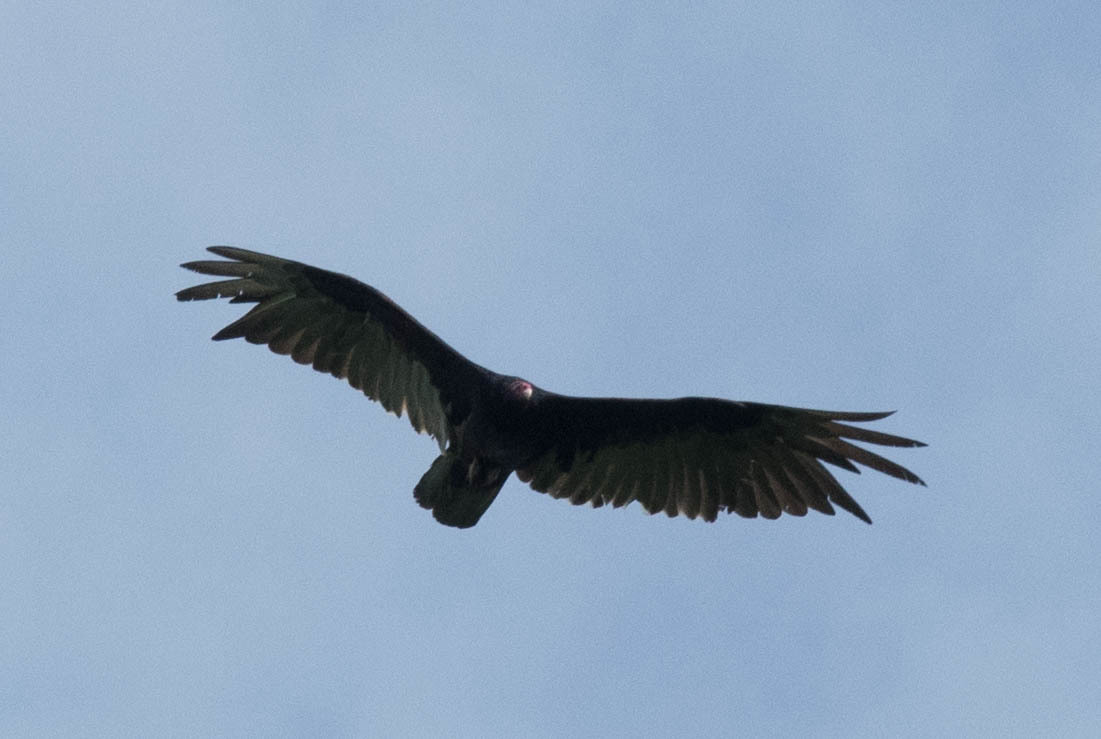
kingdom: Animalia
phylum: Chordata
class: Aves
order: Accipitriformes
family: Cathartidae
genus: Cathartes
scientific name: Cathartes aura
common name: Turkey vulture
